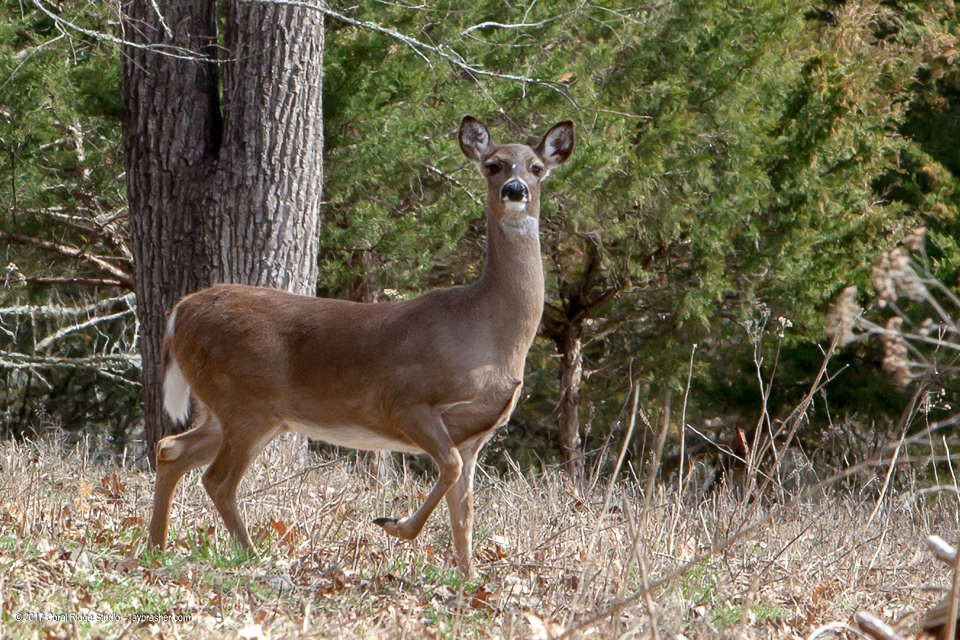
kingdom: Animalia
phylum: Chordata
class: Mammalia
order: Artiodactyla
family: Cervidae
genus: Odocoileus
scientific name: Odocoileus virginianus
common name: White-tailed deer
